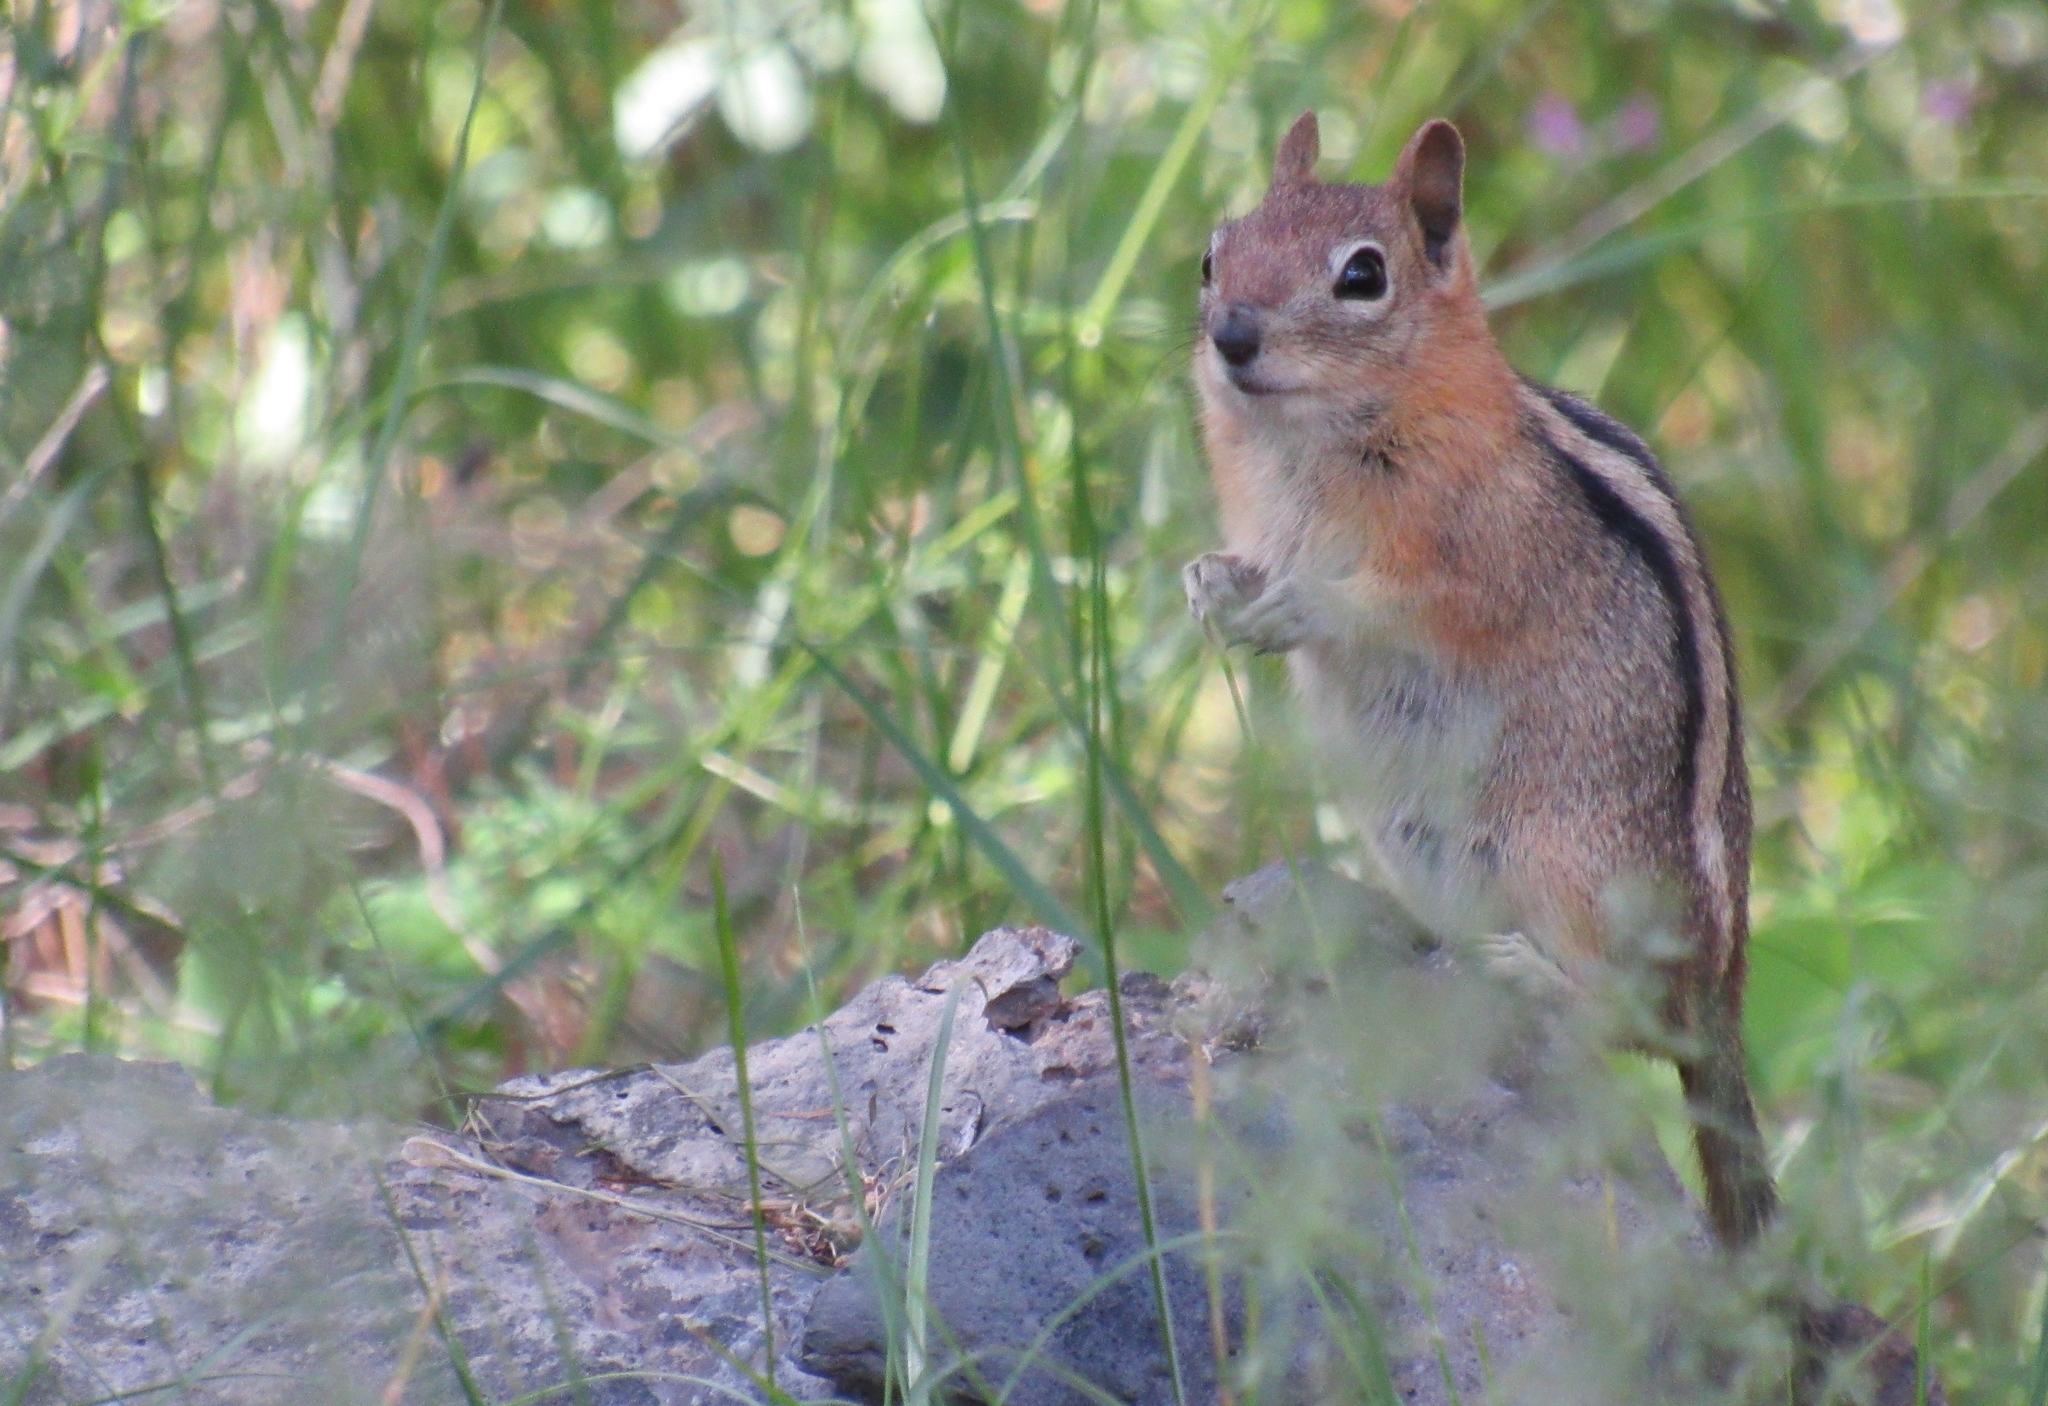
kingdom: Animalia
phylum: Chordata
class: Mammalia
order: Rodentia
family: Sciuridae
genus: Callospermophilus
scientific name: Callospermophilus lateralis
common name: Golden-mantled ground squirrel
